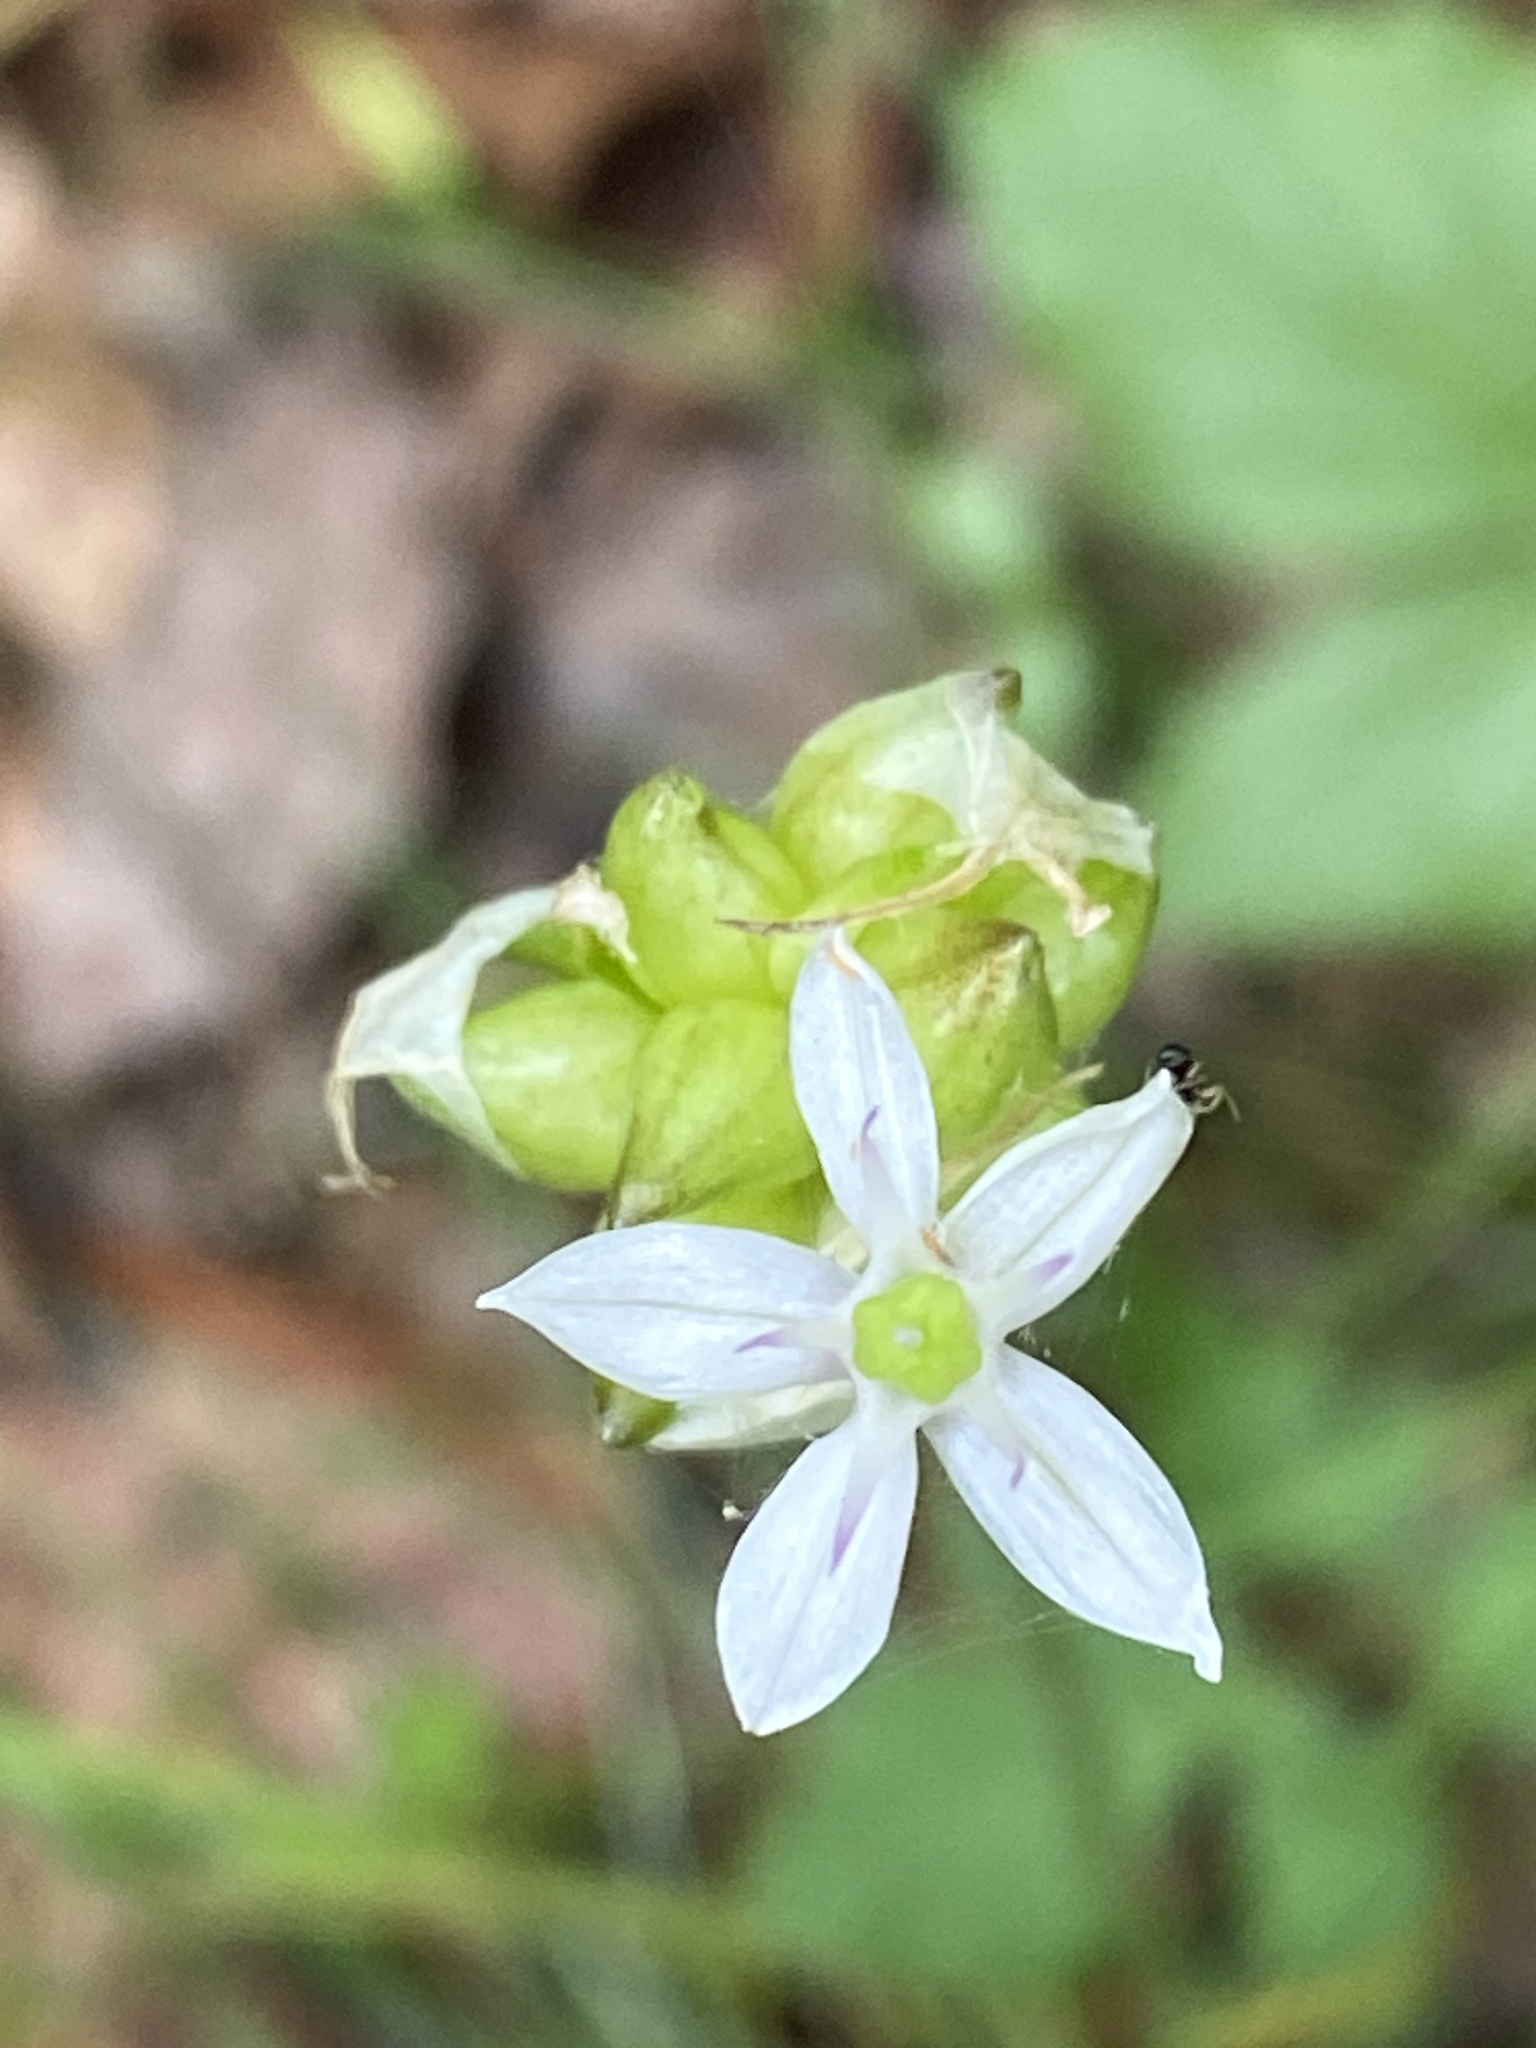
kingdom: Plantae
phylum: Tracheophyta
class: Liliopsida
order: Asparagales
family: Amaryllidaceae
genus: Allium
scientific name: Allium canadense
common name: Meadow garlic
